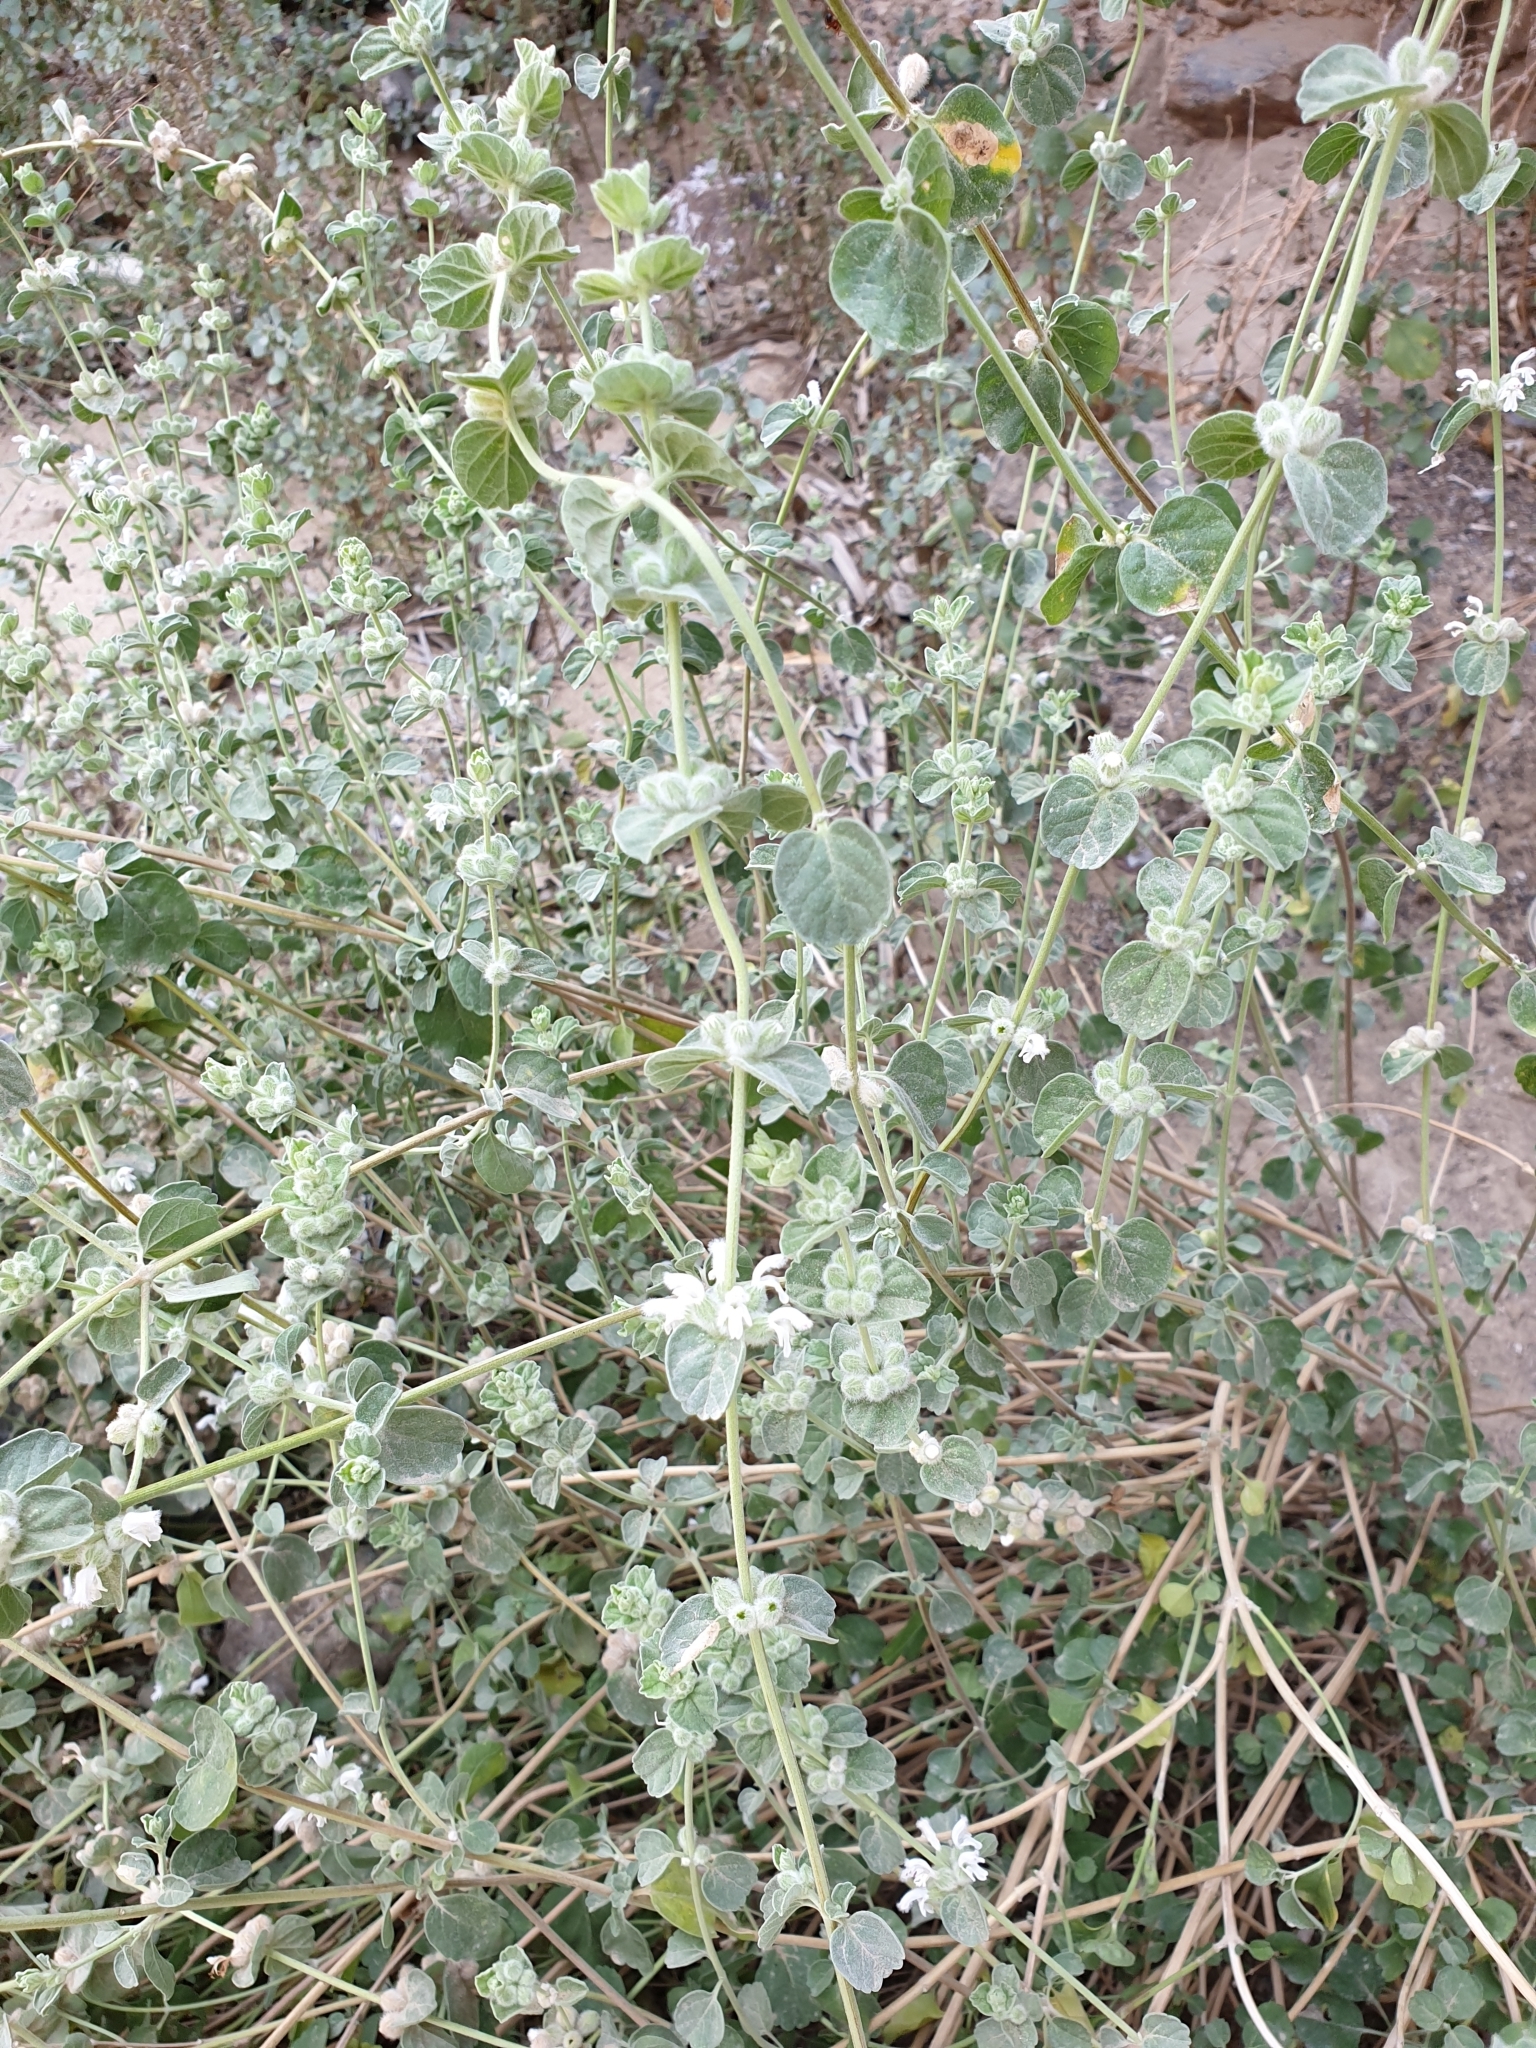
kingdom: Plantae
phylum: Tracheophyta
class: Magnoliopsida
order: Lamiales
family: Lamiaceae
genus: Leucas
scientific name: Leucas inflata
